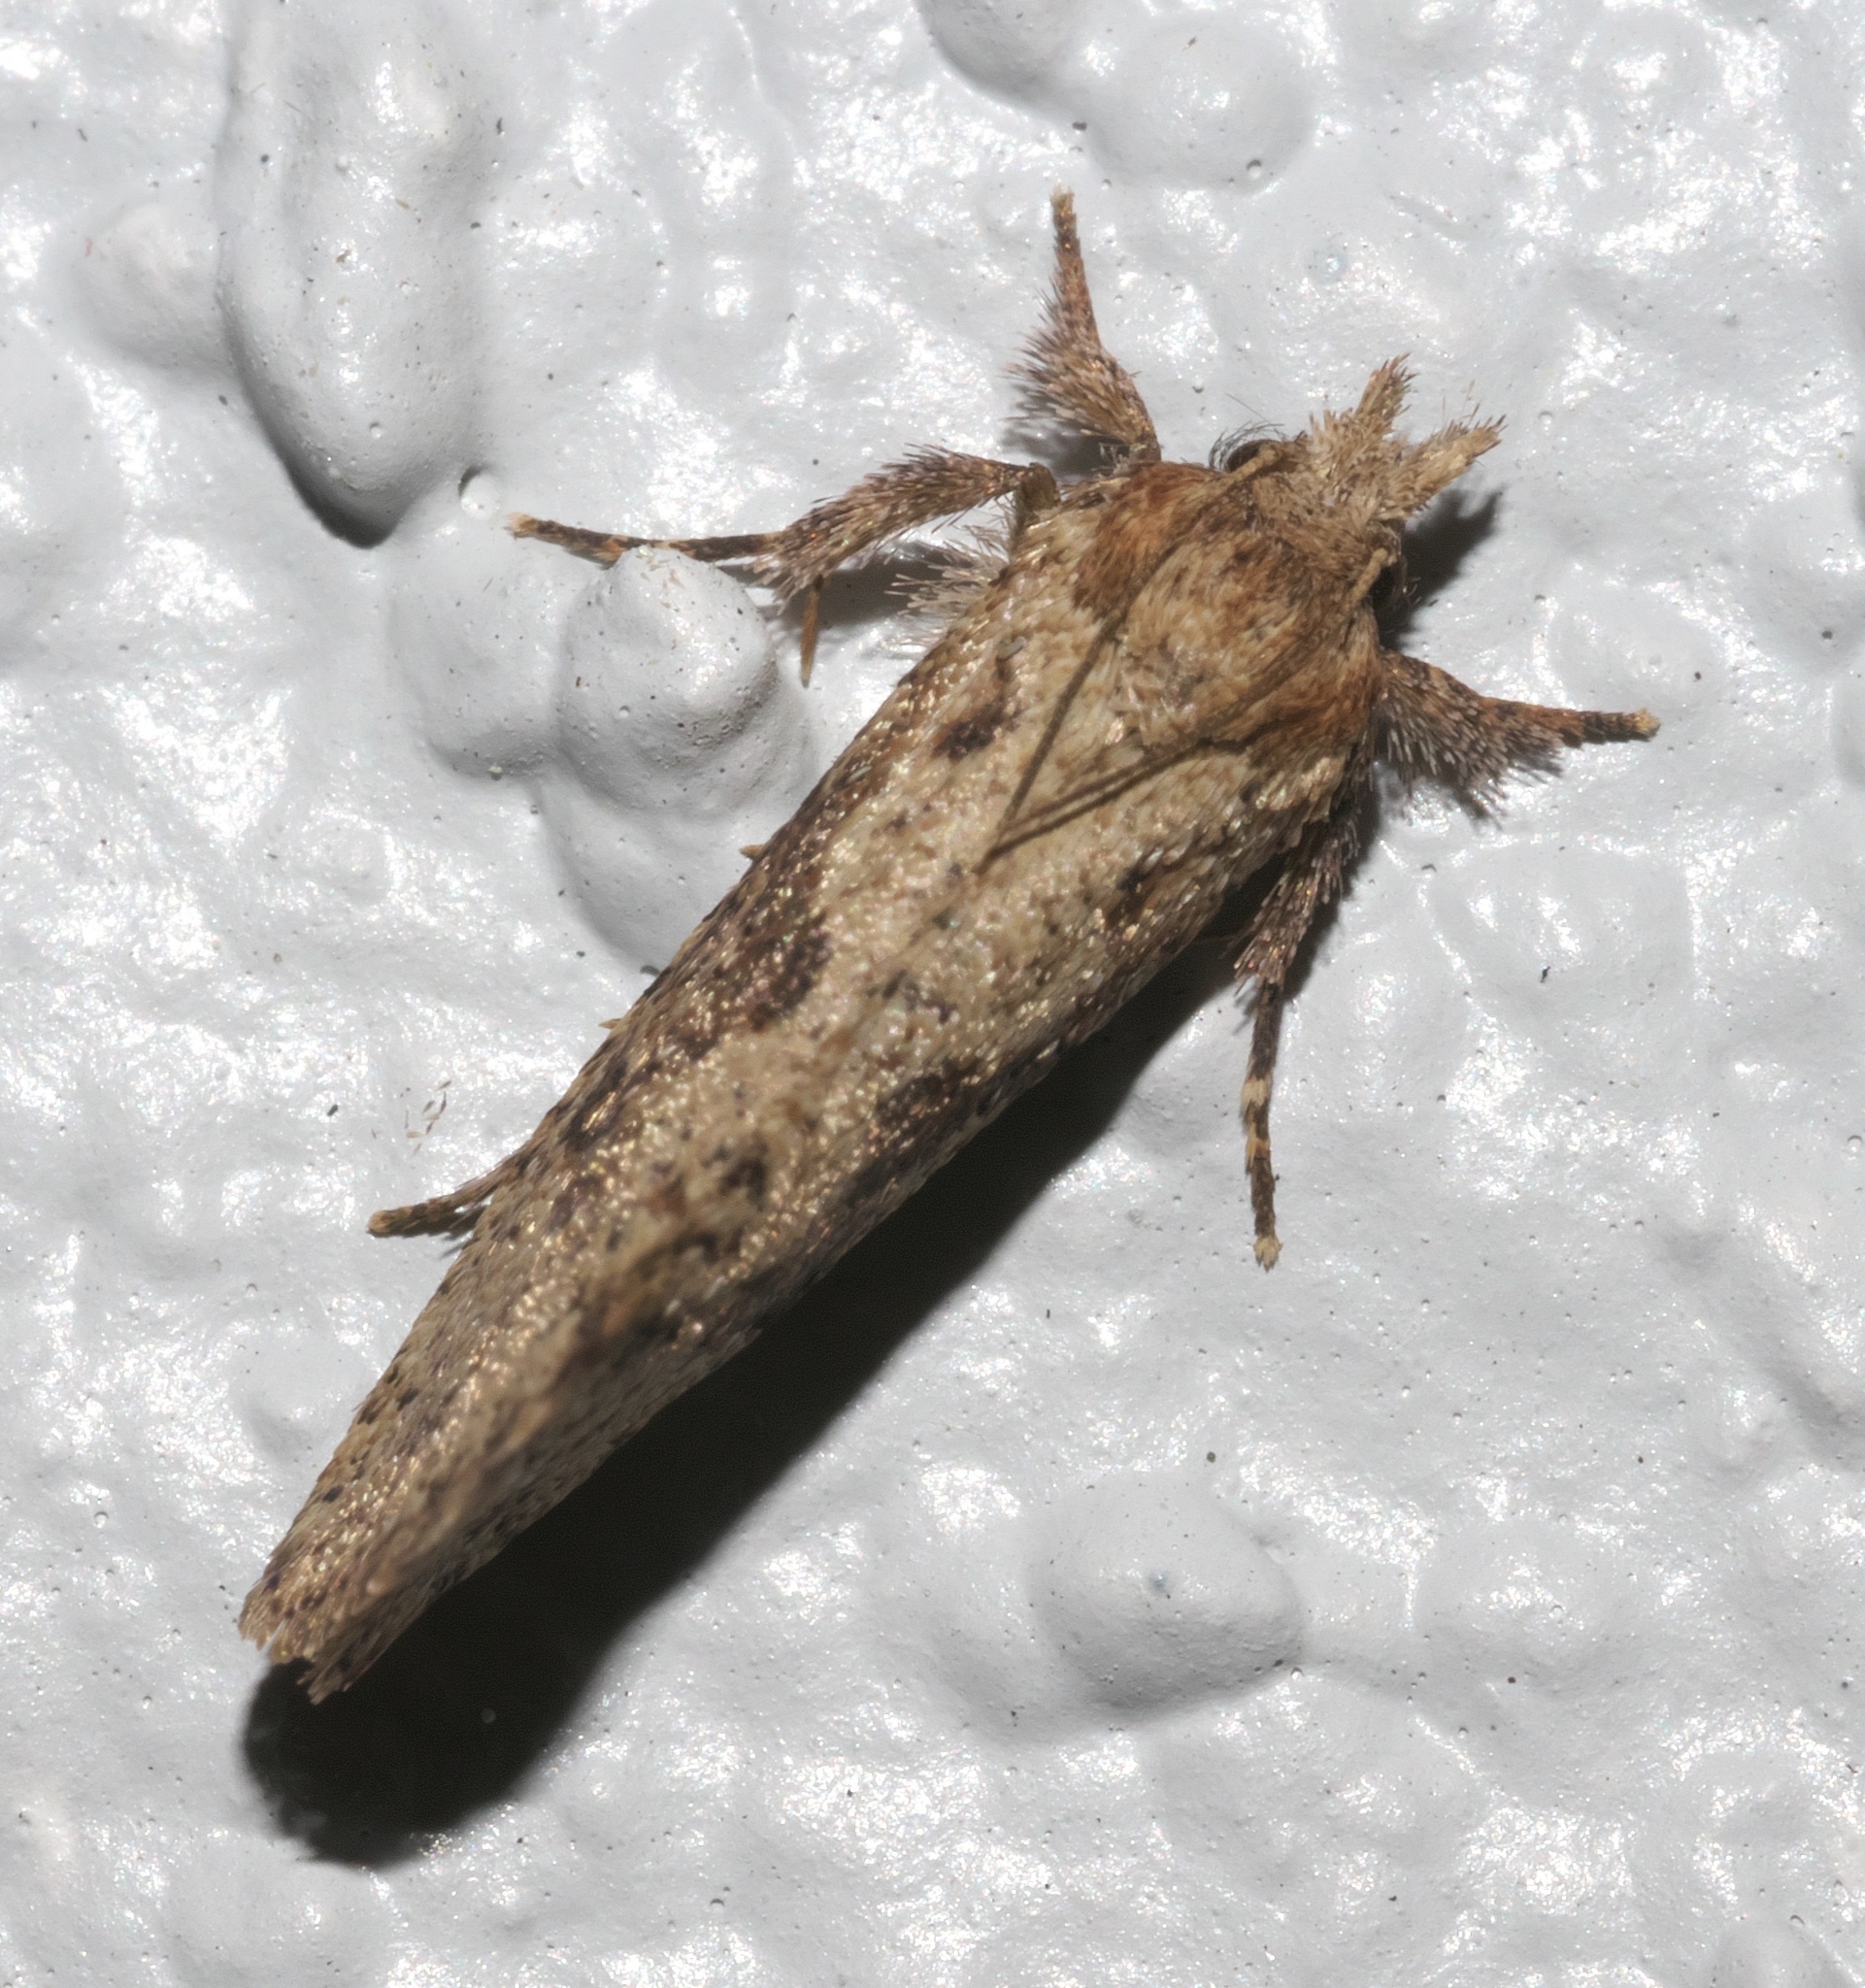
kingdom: Animalia
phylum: Arthropoda
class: Insecta
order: Lepidoptera
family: Tineidae
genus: Acrolophus
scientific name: Acrolophus walsinghami
